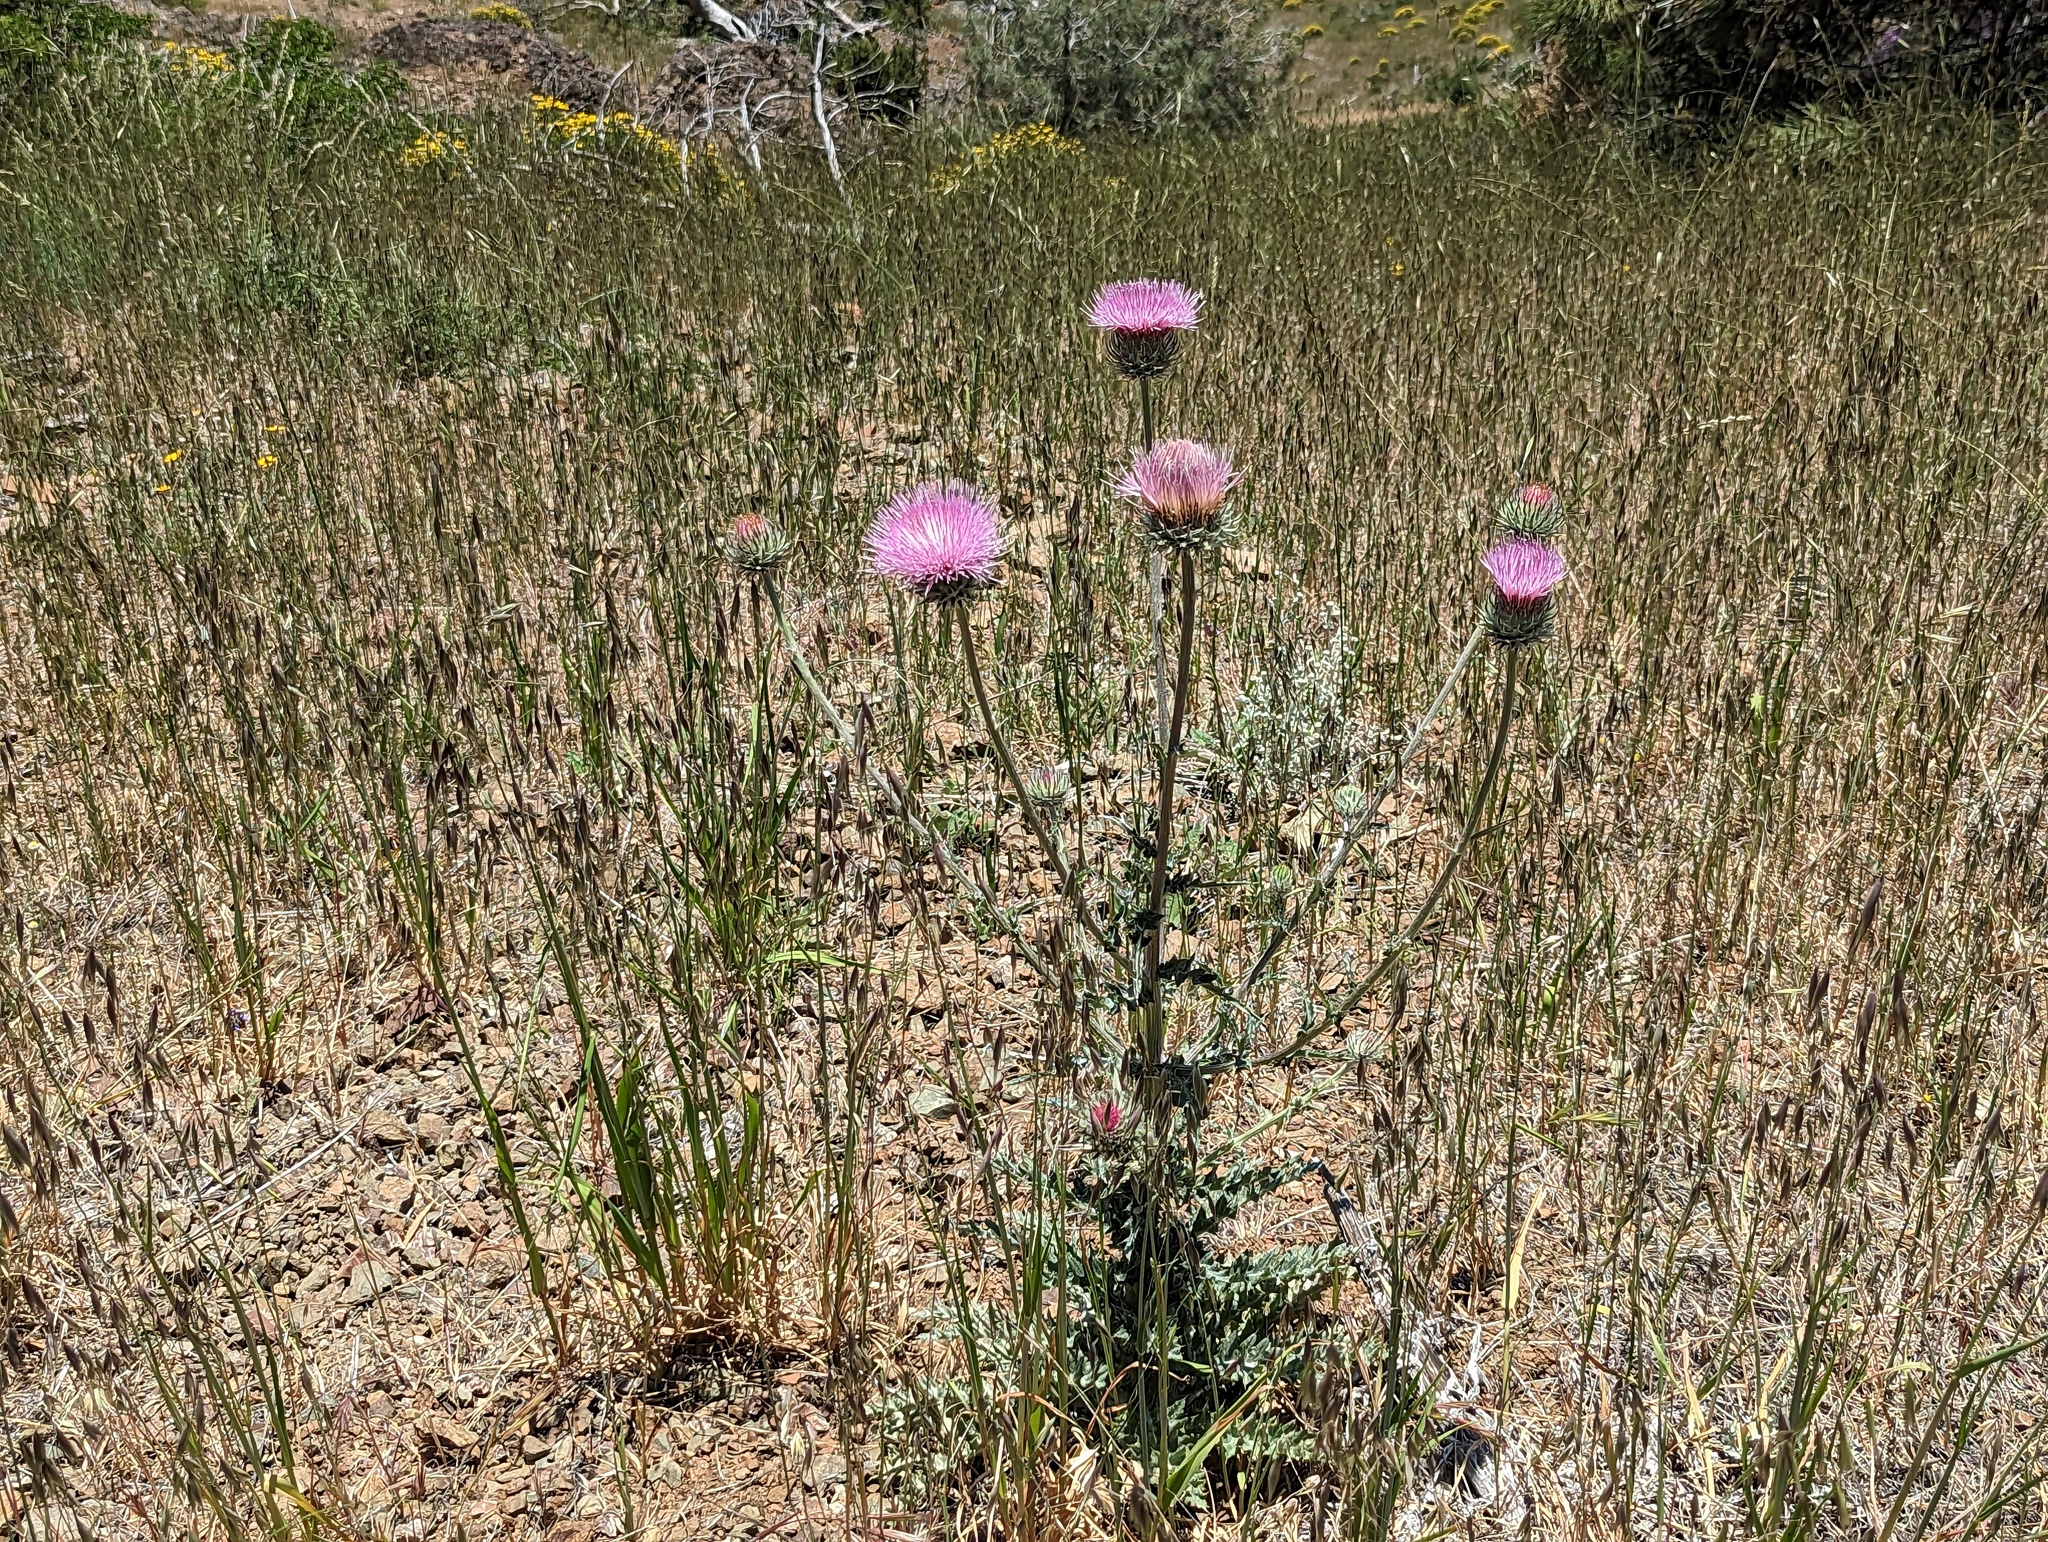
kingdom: Plantae
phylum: Tracheophyta
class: Magnoliopsida
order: Asterales
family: Asteraceae
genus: Cirsium
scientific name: Cirsium occidentale
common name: Western thistle
